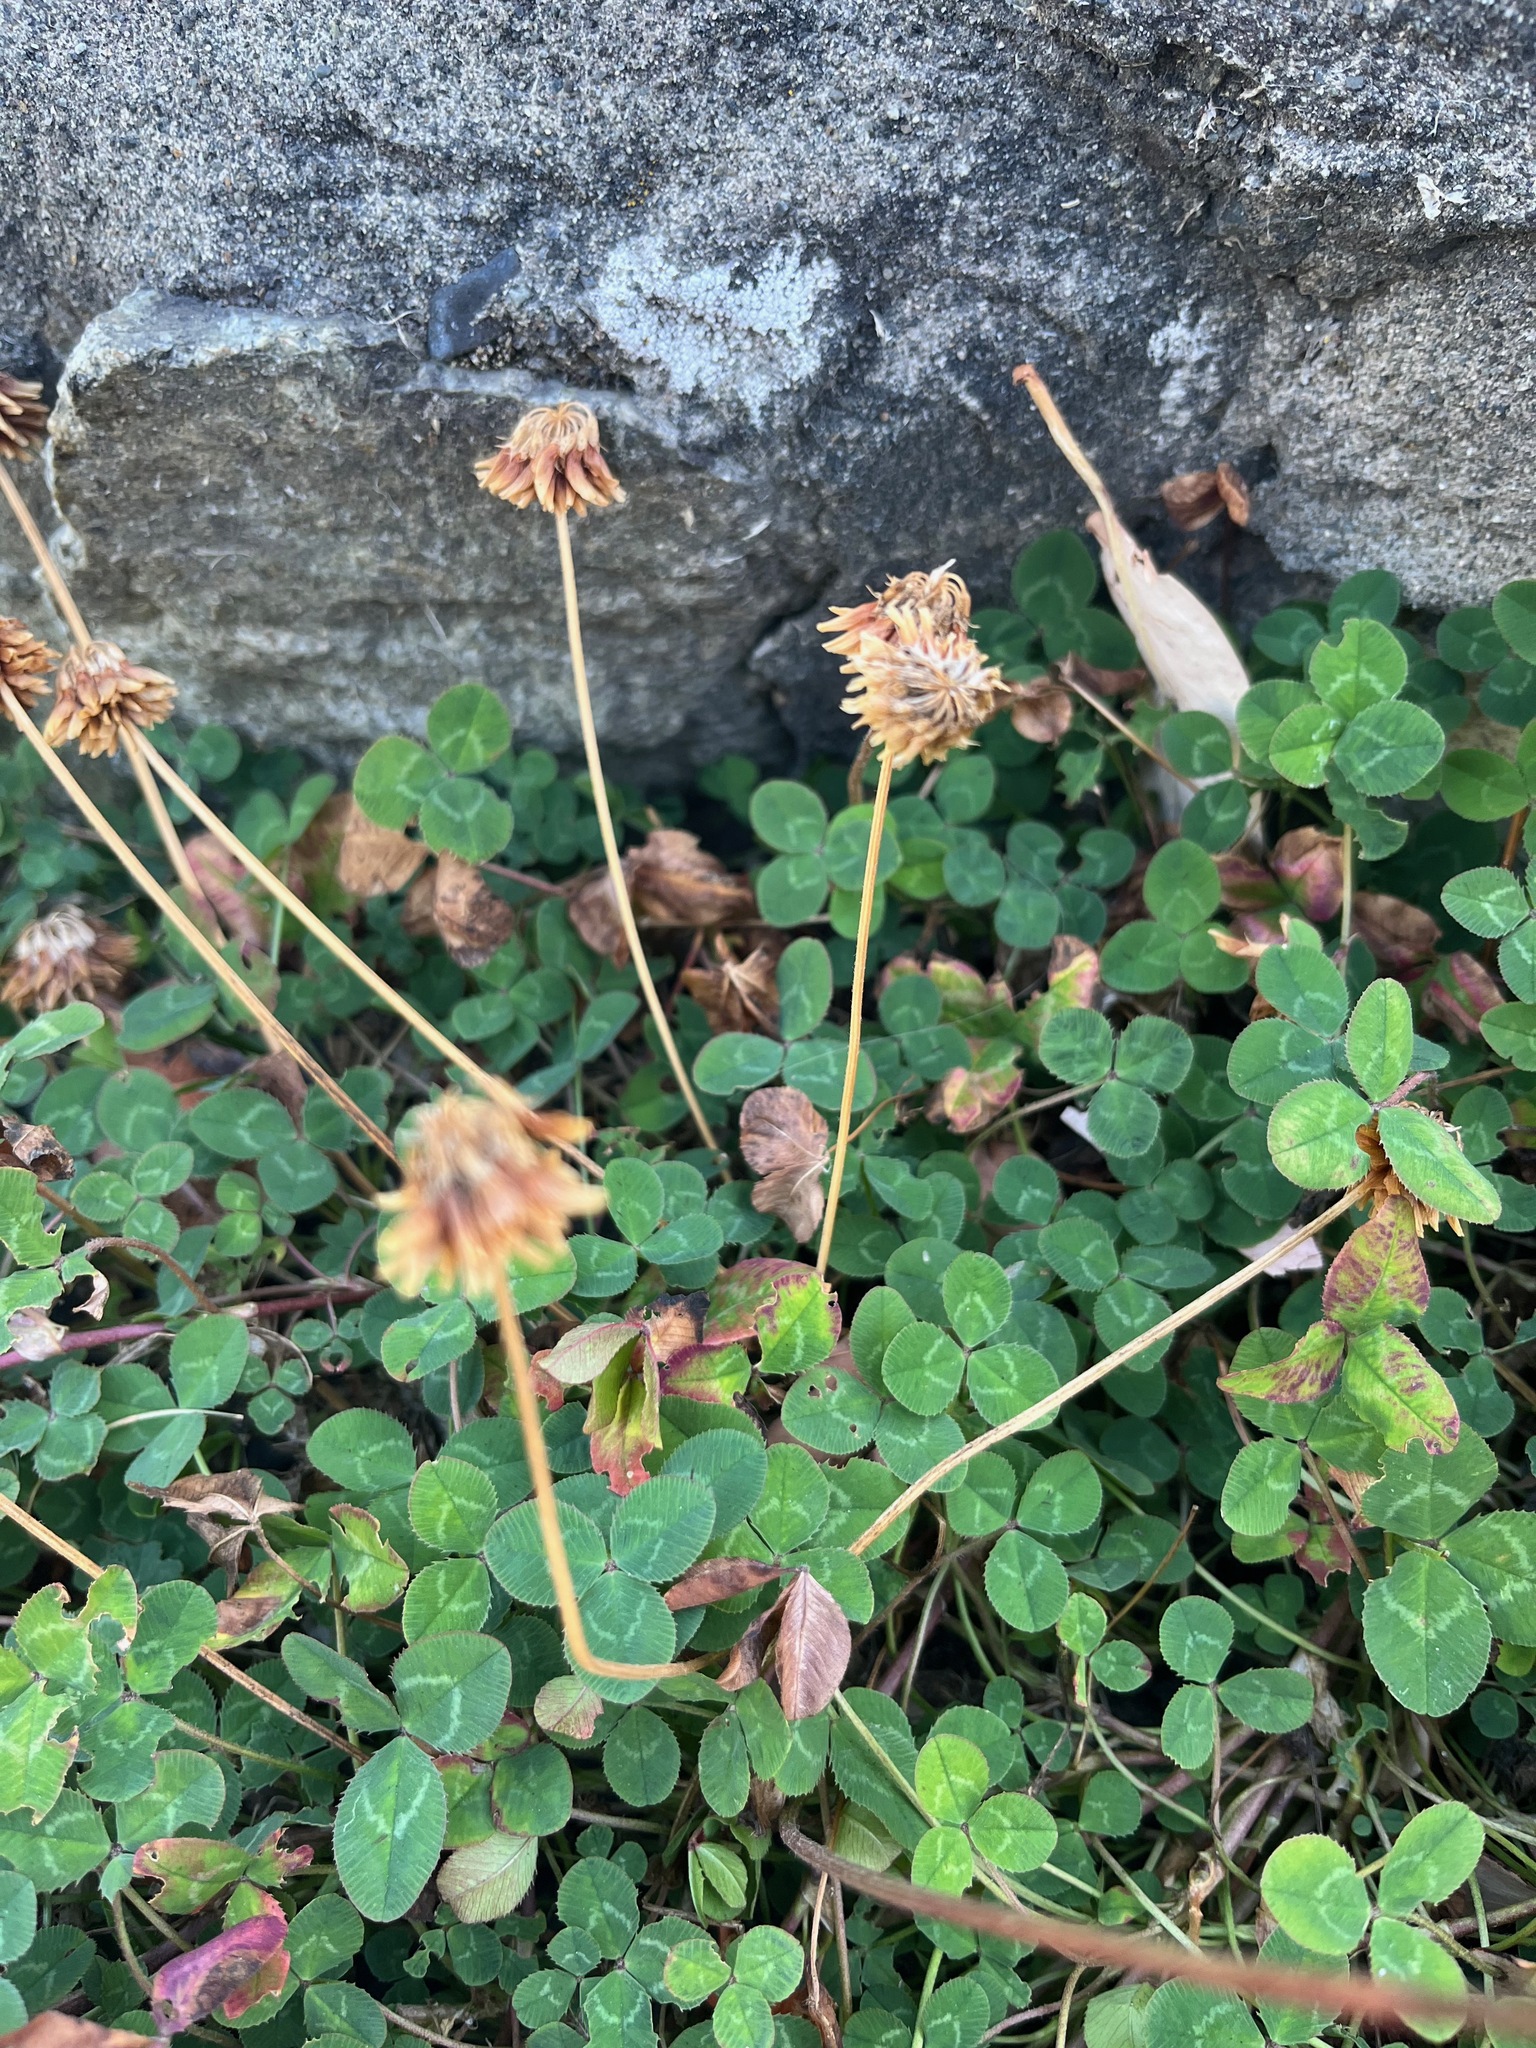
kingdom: Plantae
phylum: Tracheophyta
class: Magnoliopsida
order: Fabales
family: Fabaceae
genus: Trifolium
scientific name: Trifolium repens
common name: White clover
